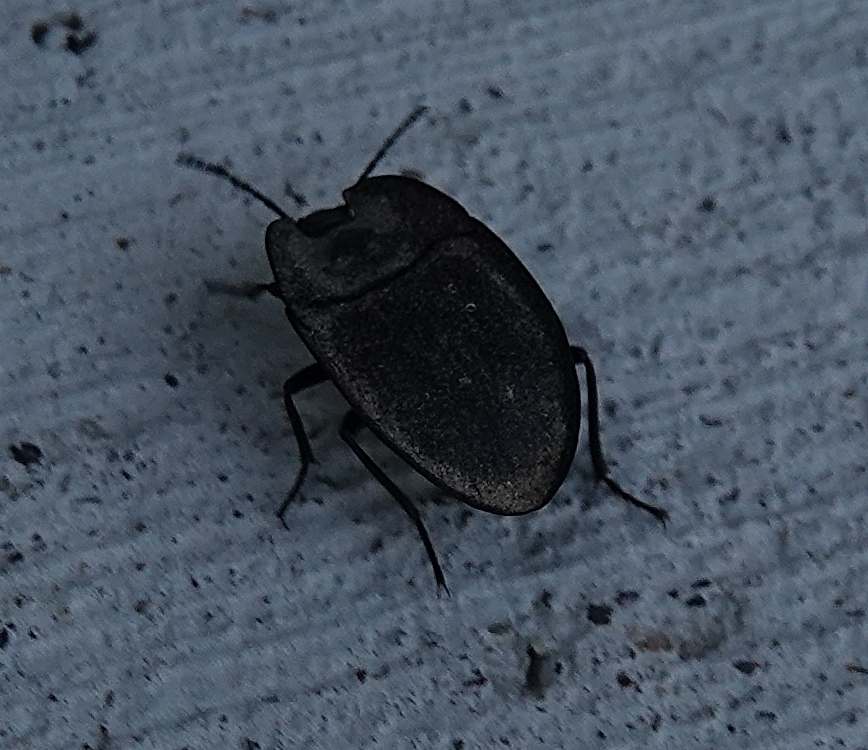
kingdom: Animalia
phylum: Arthropoda
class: Insecta
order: Coleoptera
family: Tenebrionidae
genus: Embaphion
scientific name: Embaphion muricatum
